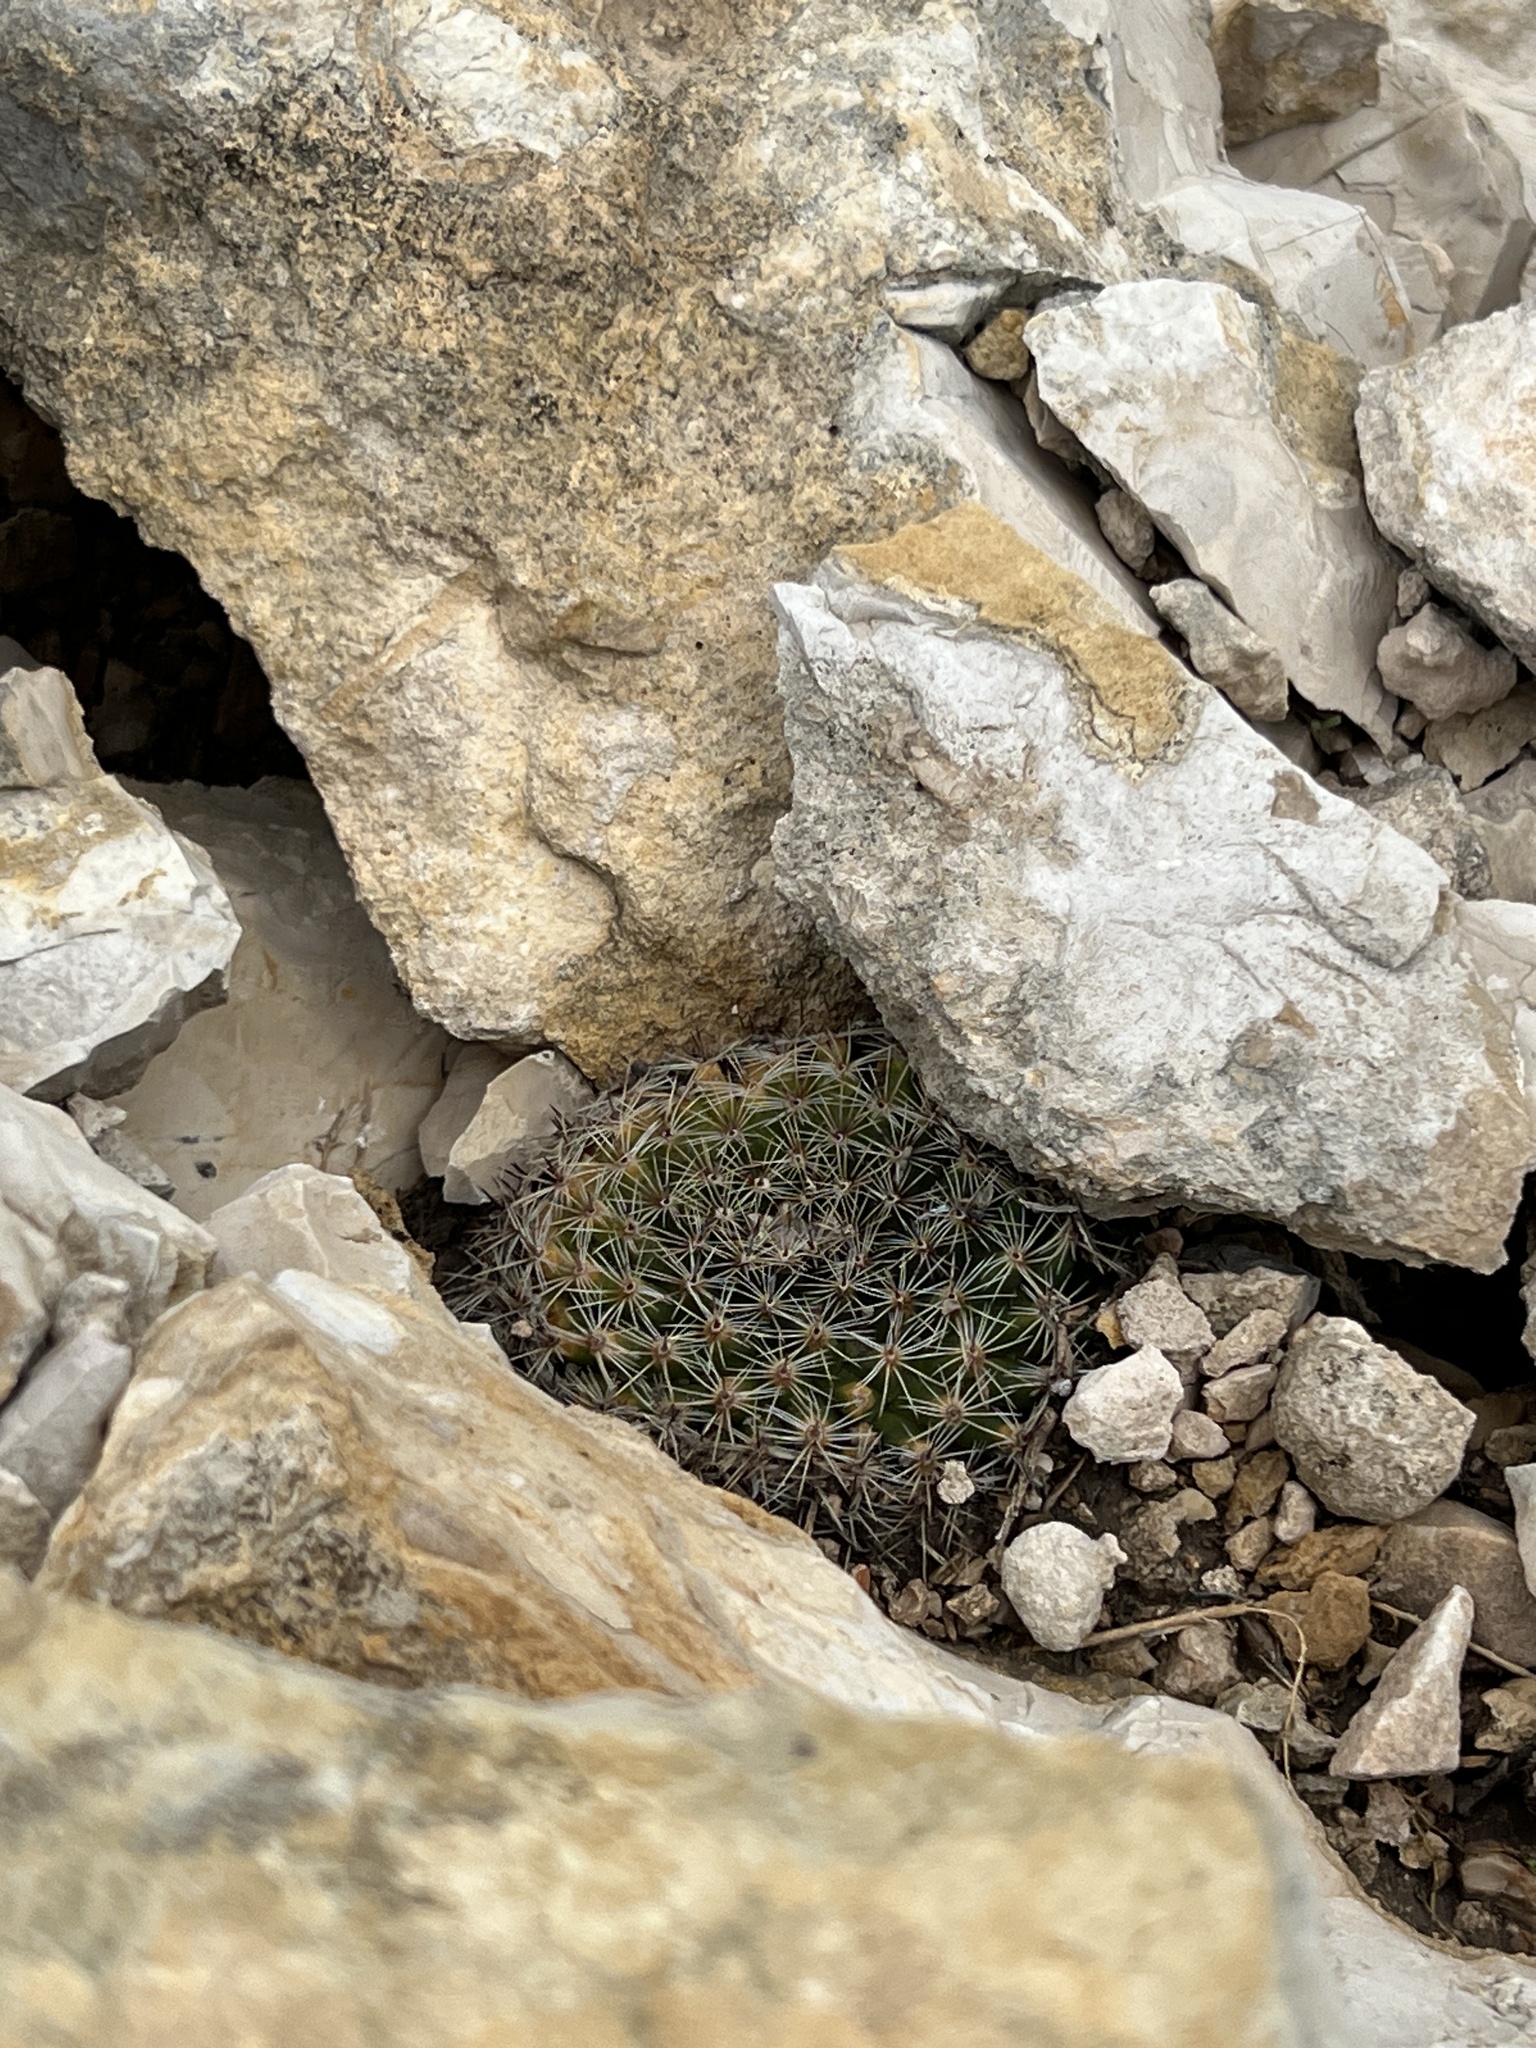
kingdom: Plantae
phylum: Tracheophyta
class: Magnoliopsida
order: Caryophyllales
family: Cactaceae
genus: Mammillaria
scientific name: Mammillaria heyderi
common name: Little nipple cactus
